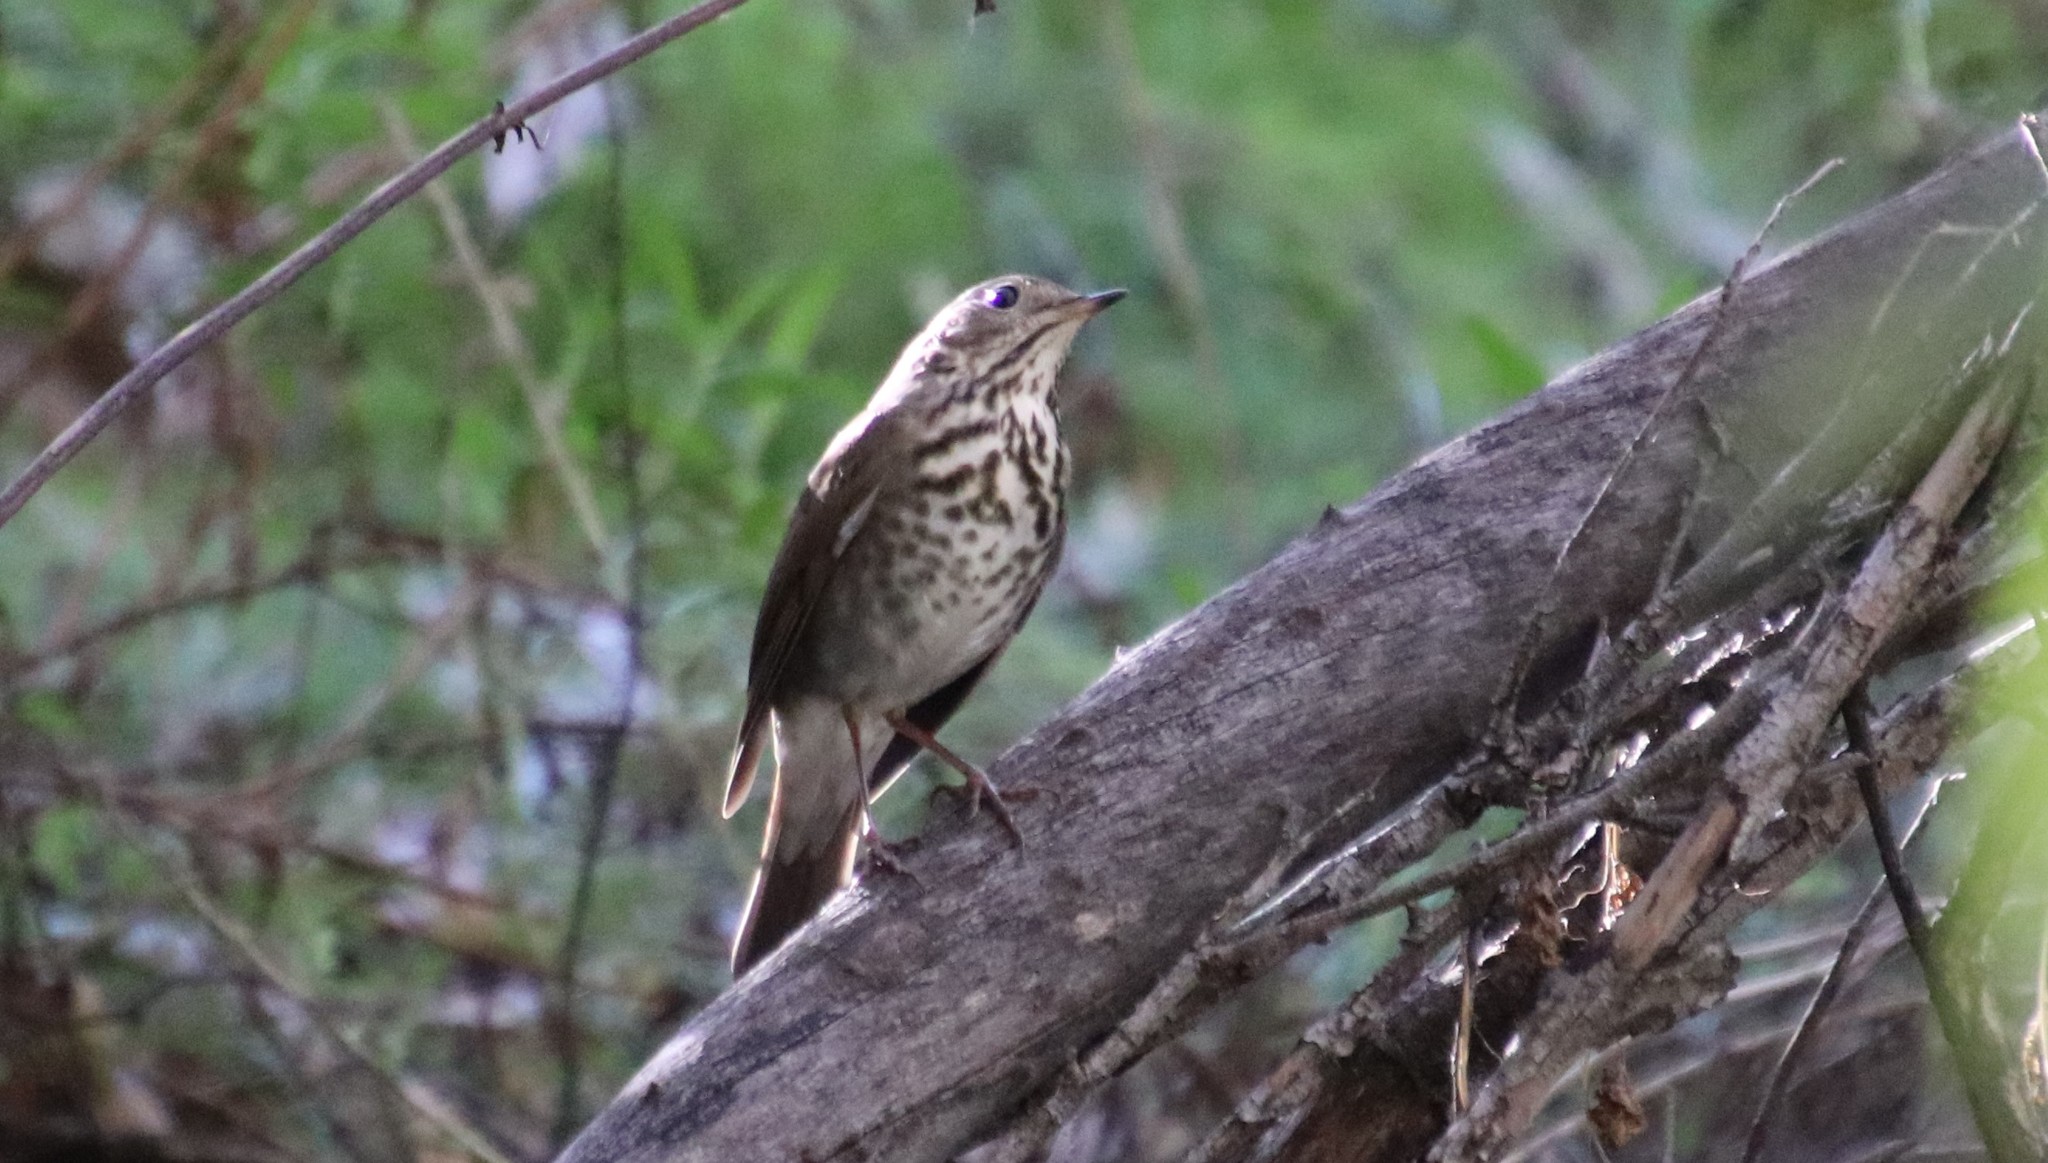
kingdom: Animalia
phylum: Chordata
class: Aves
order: Passeriformes
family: Turdidae
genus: Catharus
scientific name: Catharus guttatus
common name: Hermit thrush
